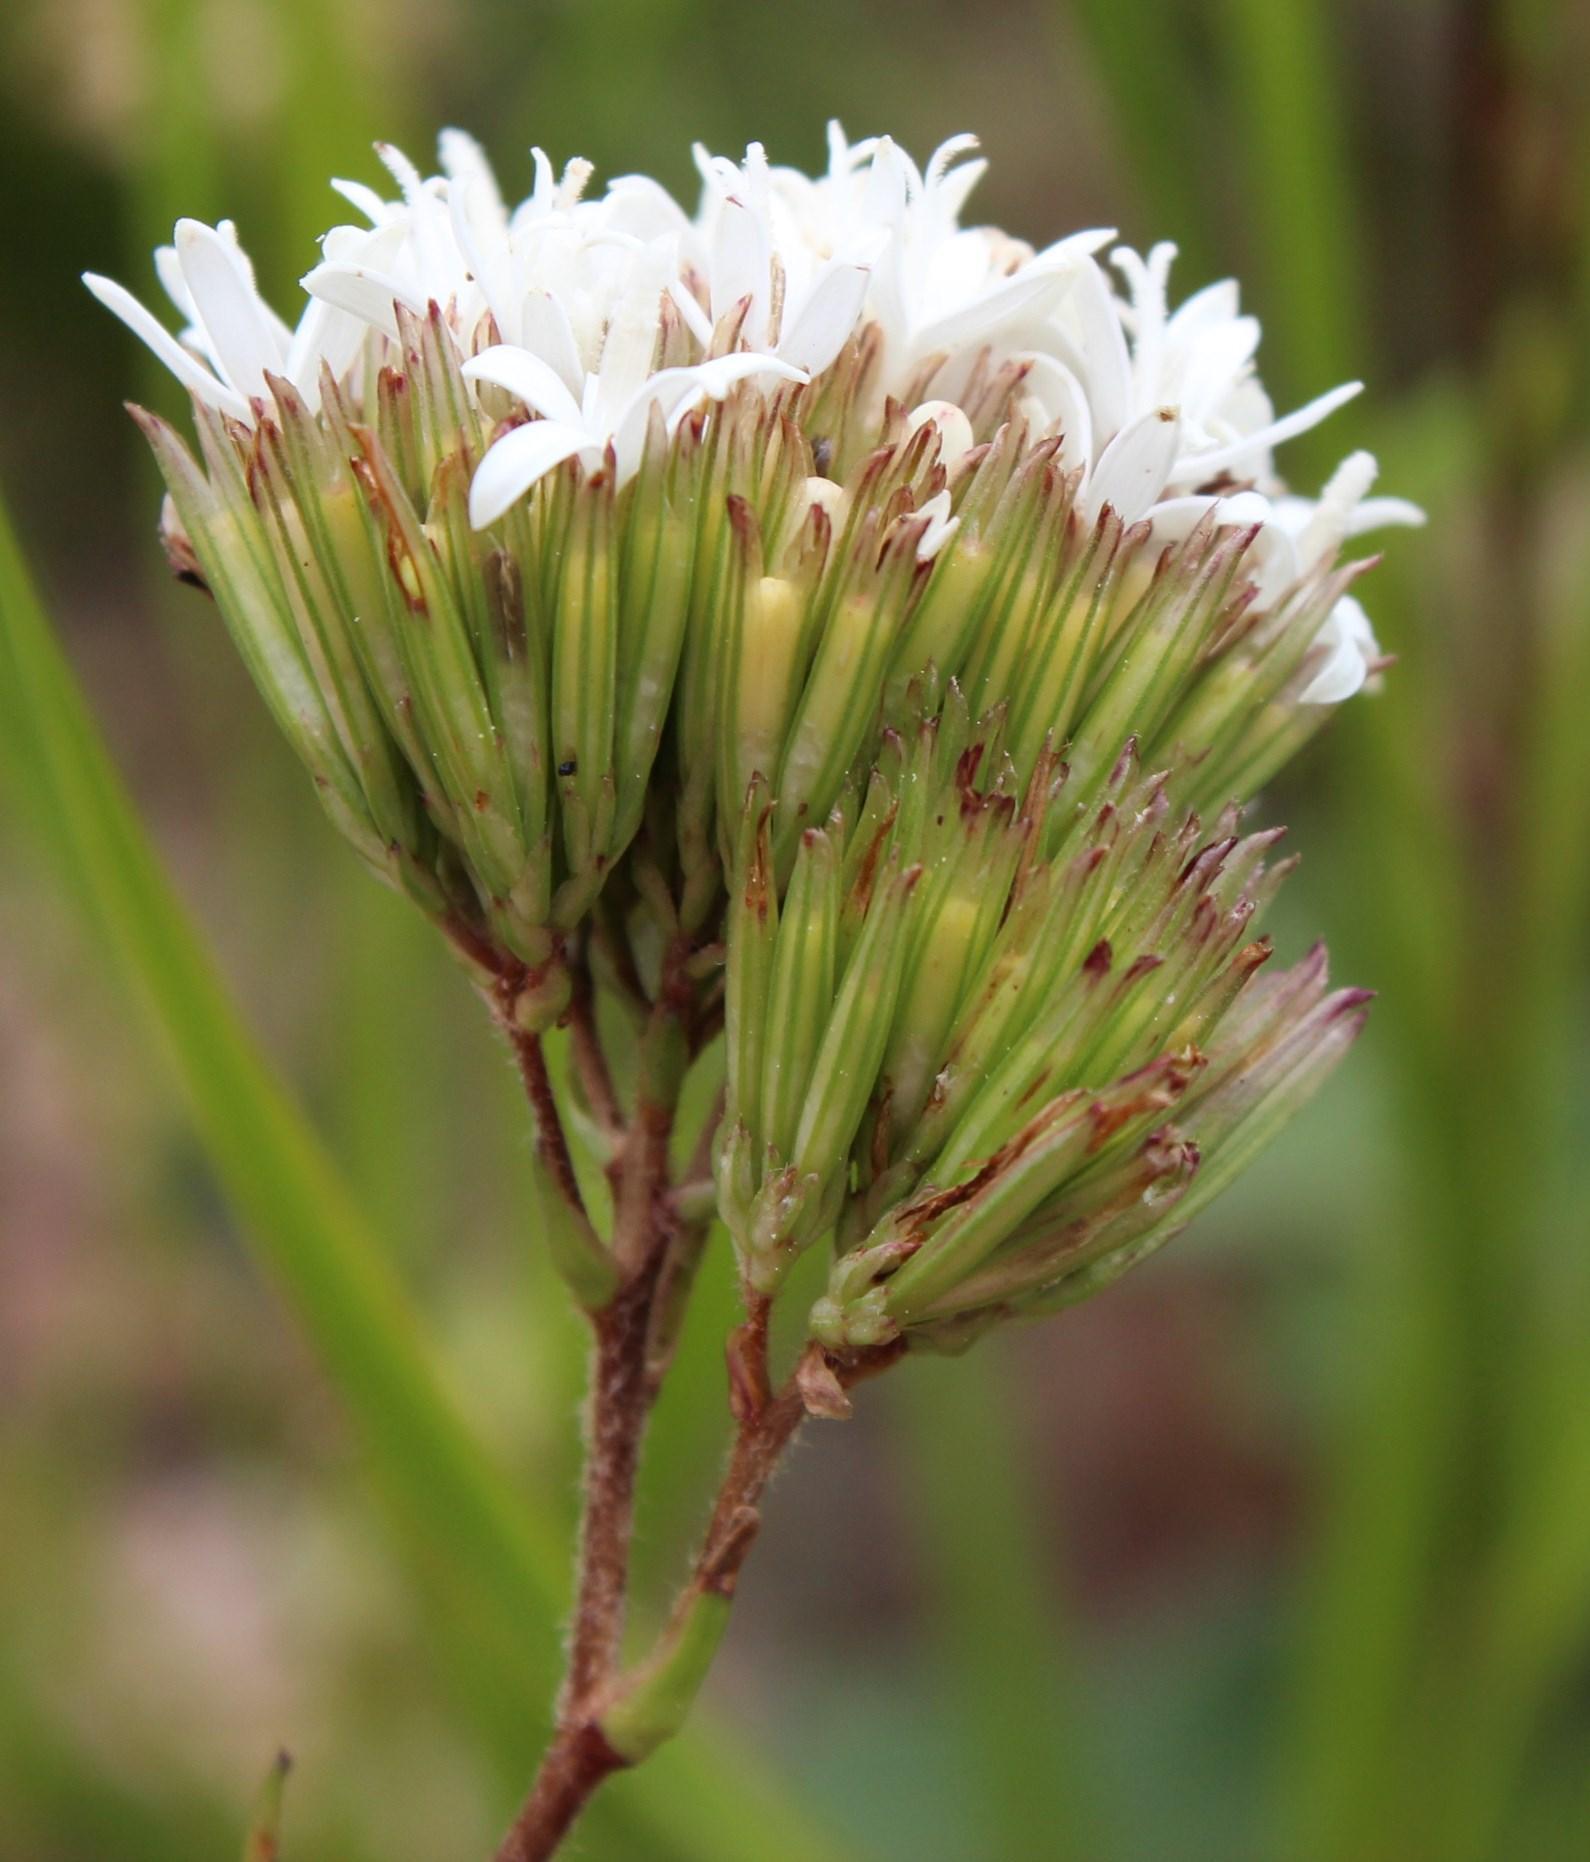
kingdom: Plantae
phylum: Tracheophyta
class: Magnoliopsida
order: Asterales
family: Asteraceae
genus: Corymbium
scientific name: Corymbium cymosum
